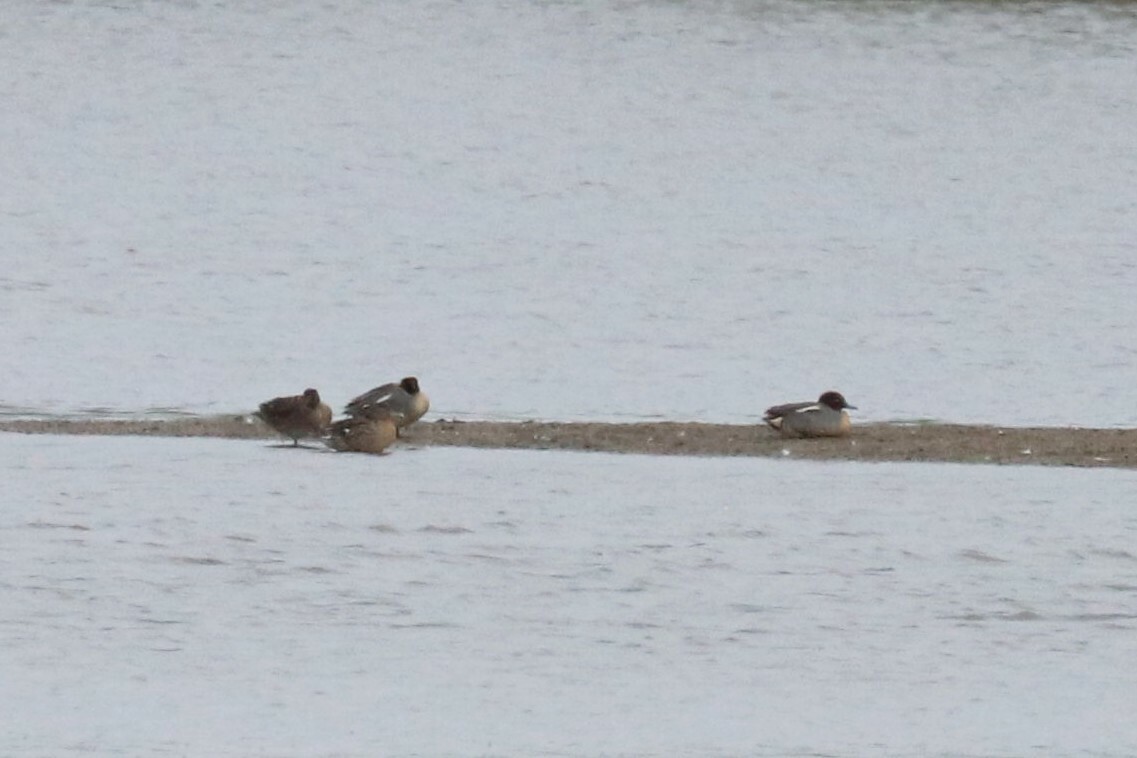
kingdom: Animalia
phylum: Chordata
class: Aves
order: Anseriformes
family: Anatidae
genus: Anas
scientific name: Anas crecca
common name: Eurasian teal
